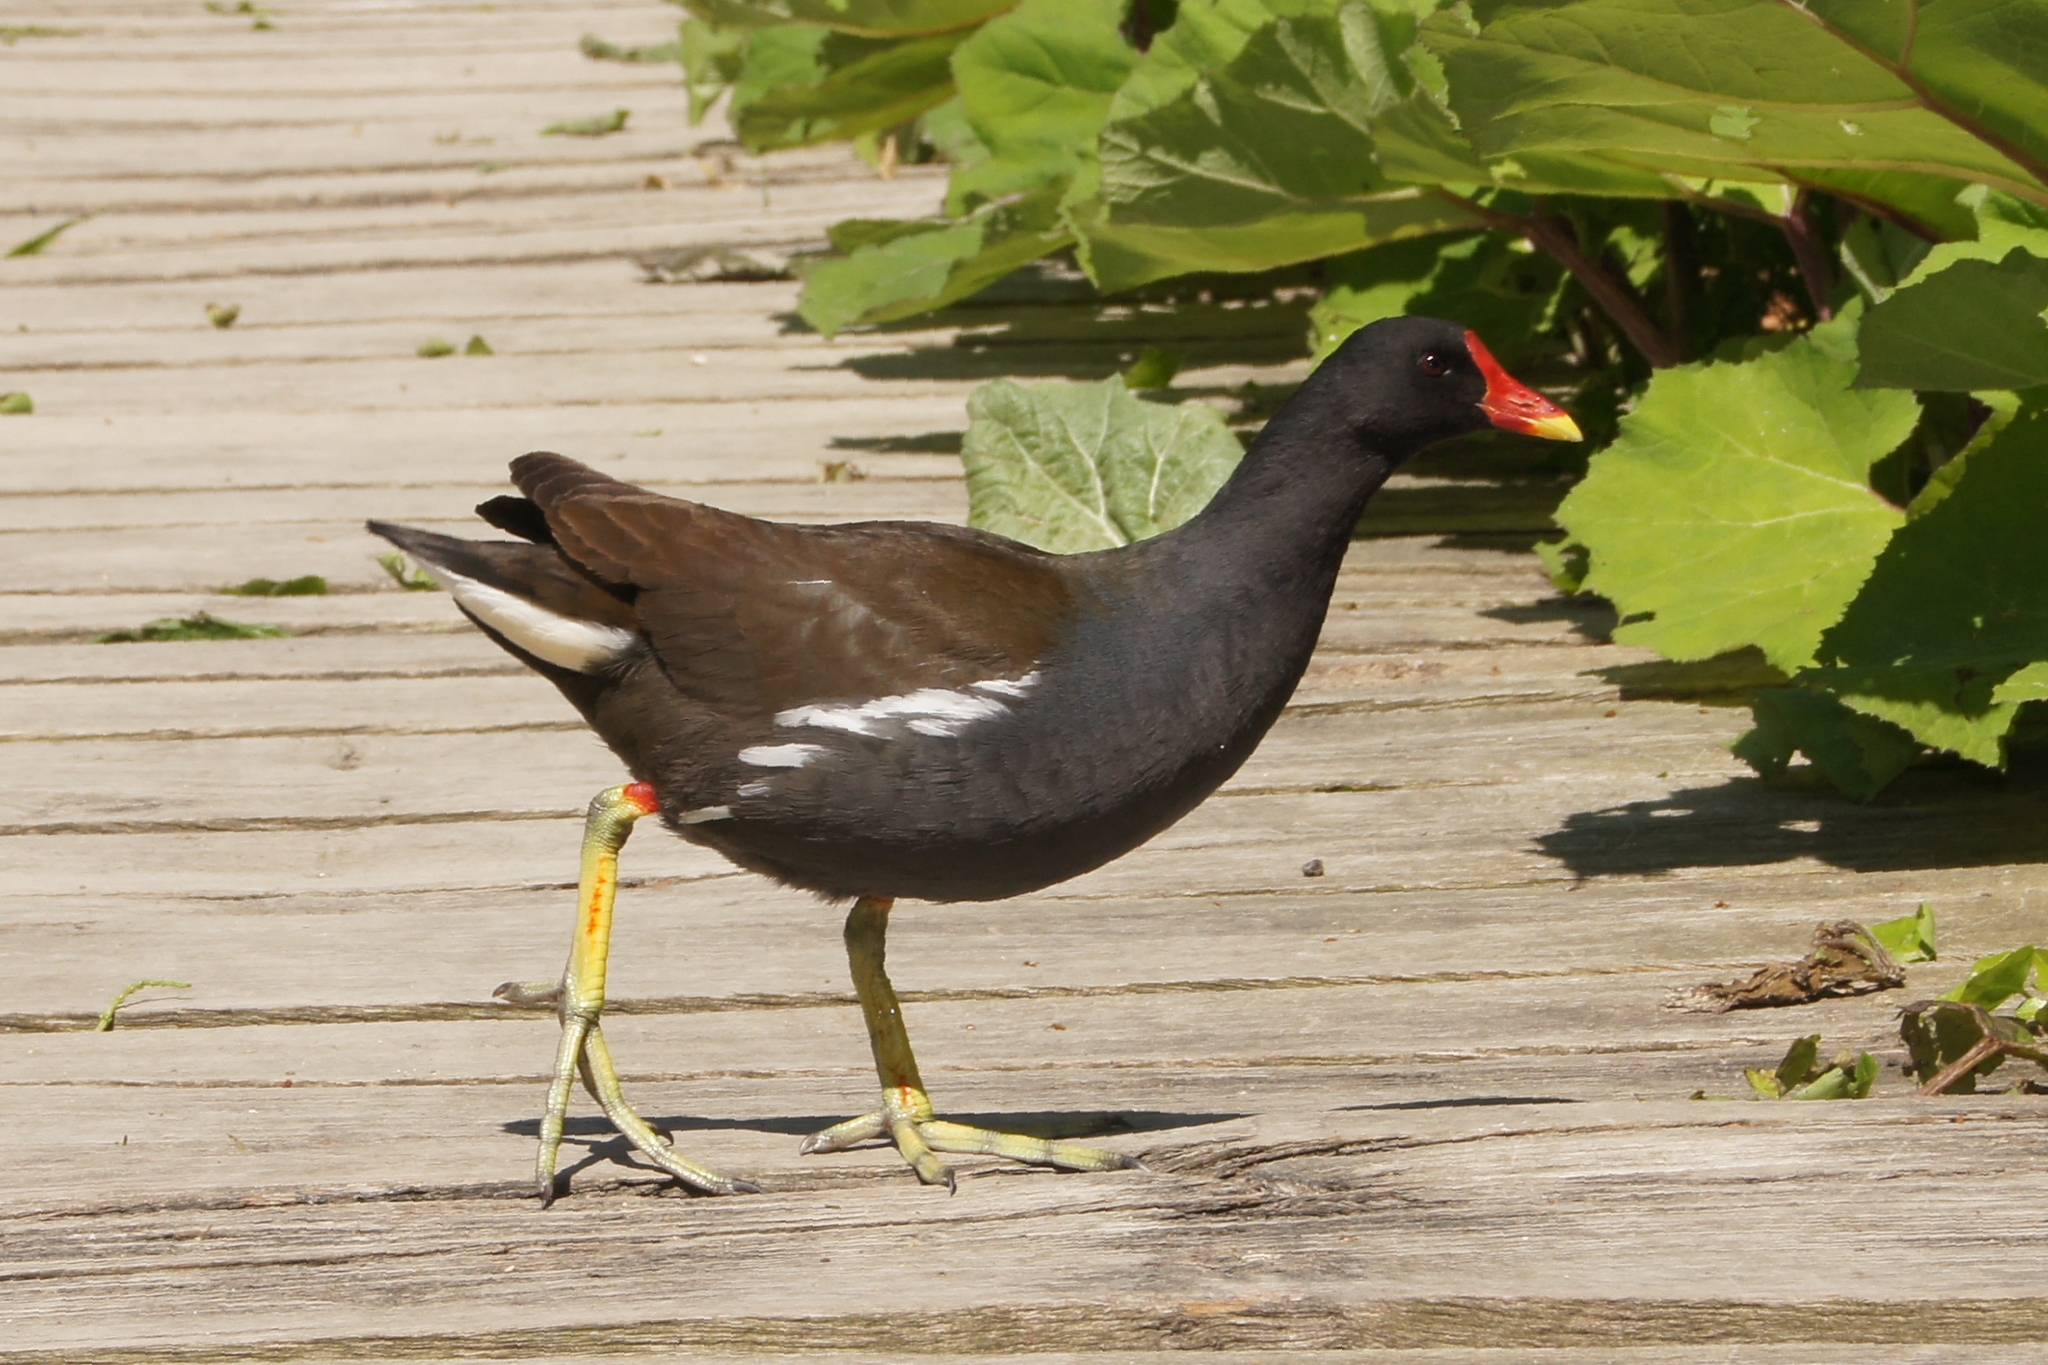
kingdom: Animalia
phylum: Chordata
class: Aves
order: Gruiformes
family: Rallidae
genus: Gallinula
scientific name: Gallinula chloropus
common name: Common moorhen
